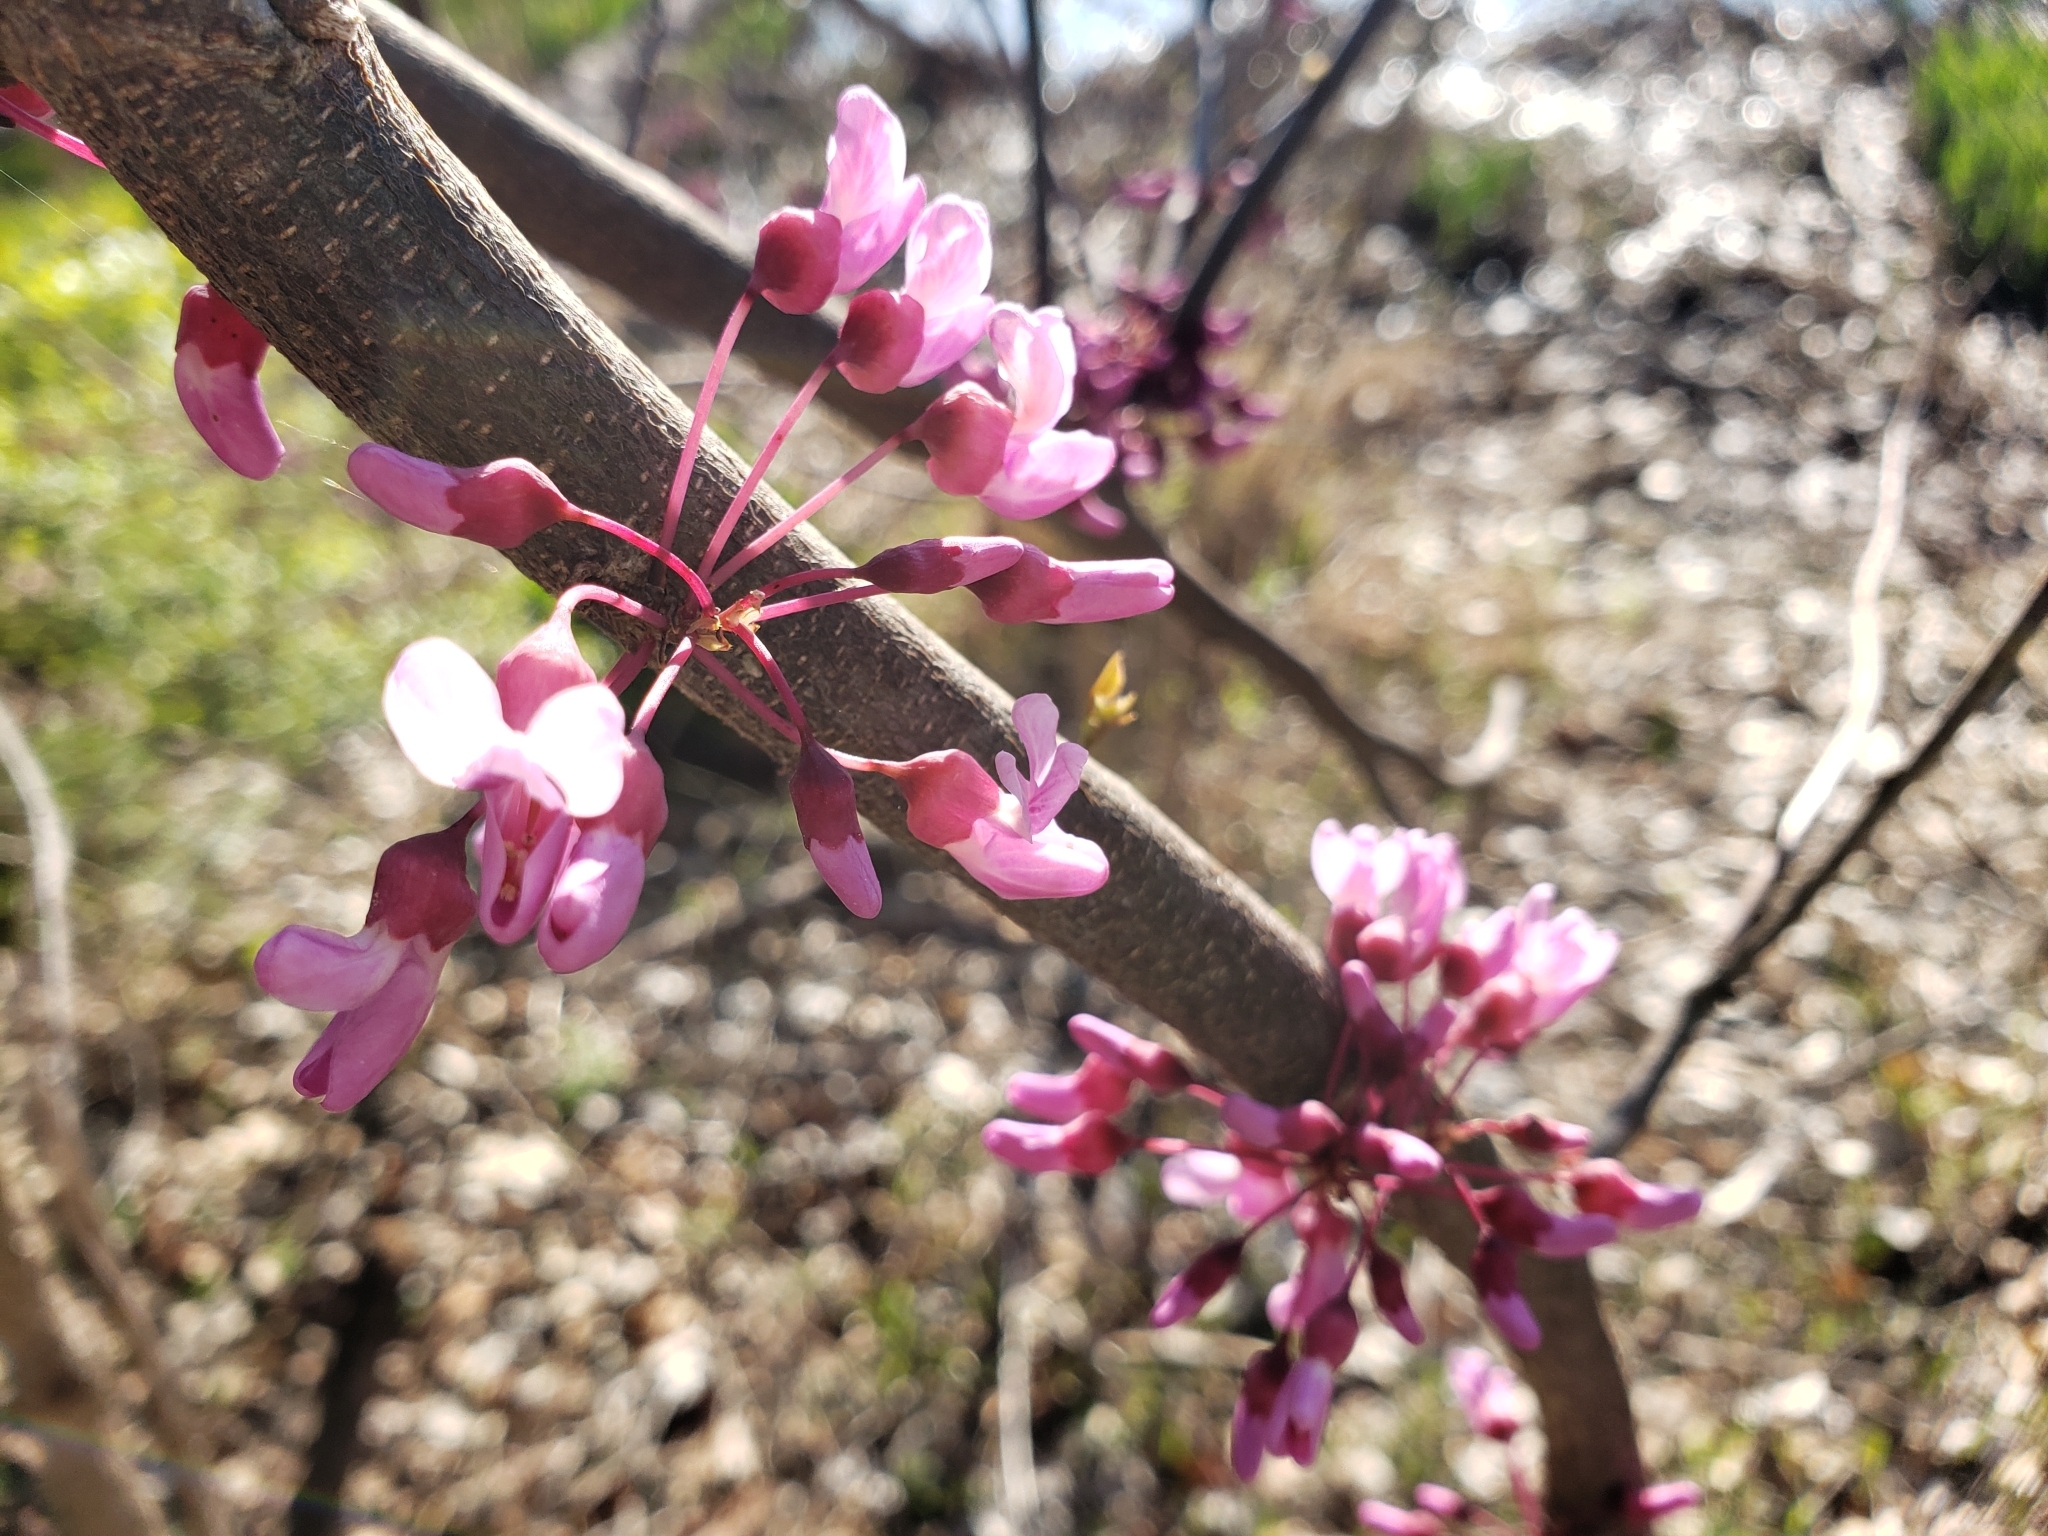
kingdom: Plantae
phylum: Tracheophyta
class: Magnoliopsida
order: Fabales
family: Fabaceae
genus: Cercis
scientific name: Cercis canadensis
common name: Eastern redbud
